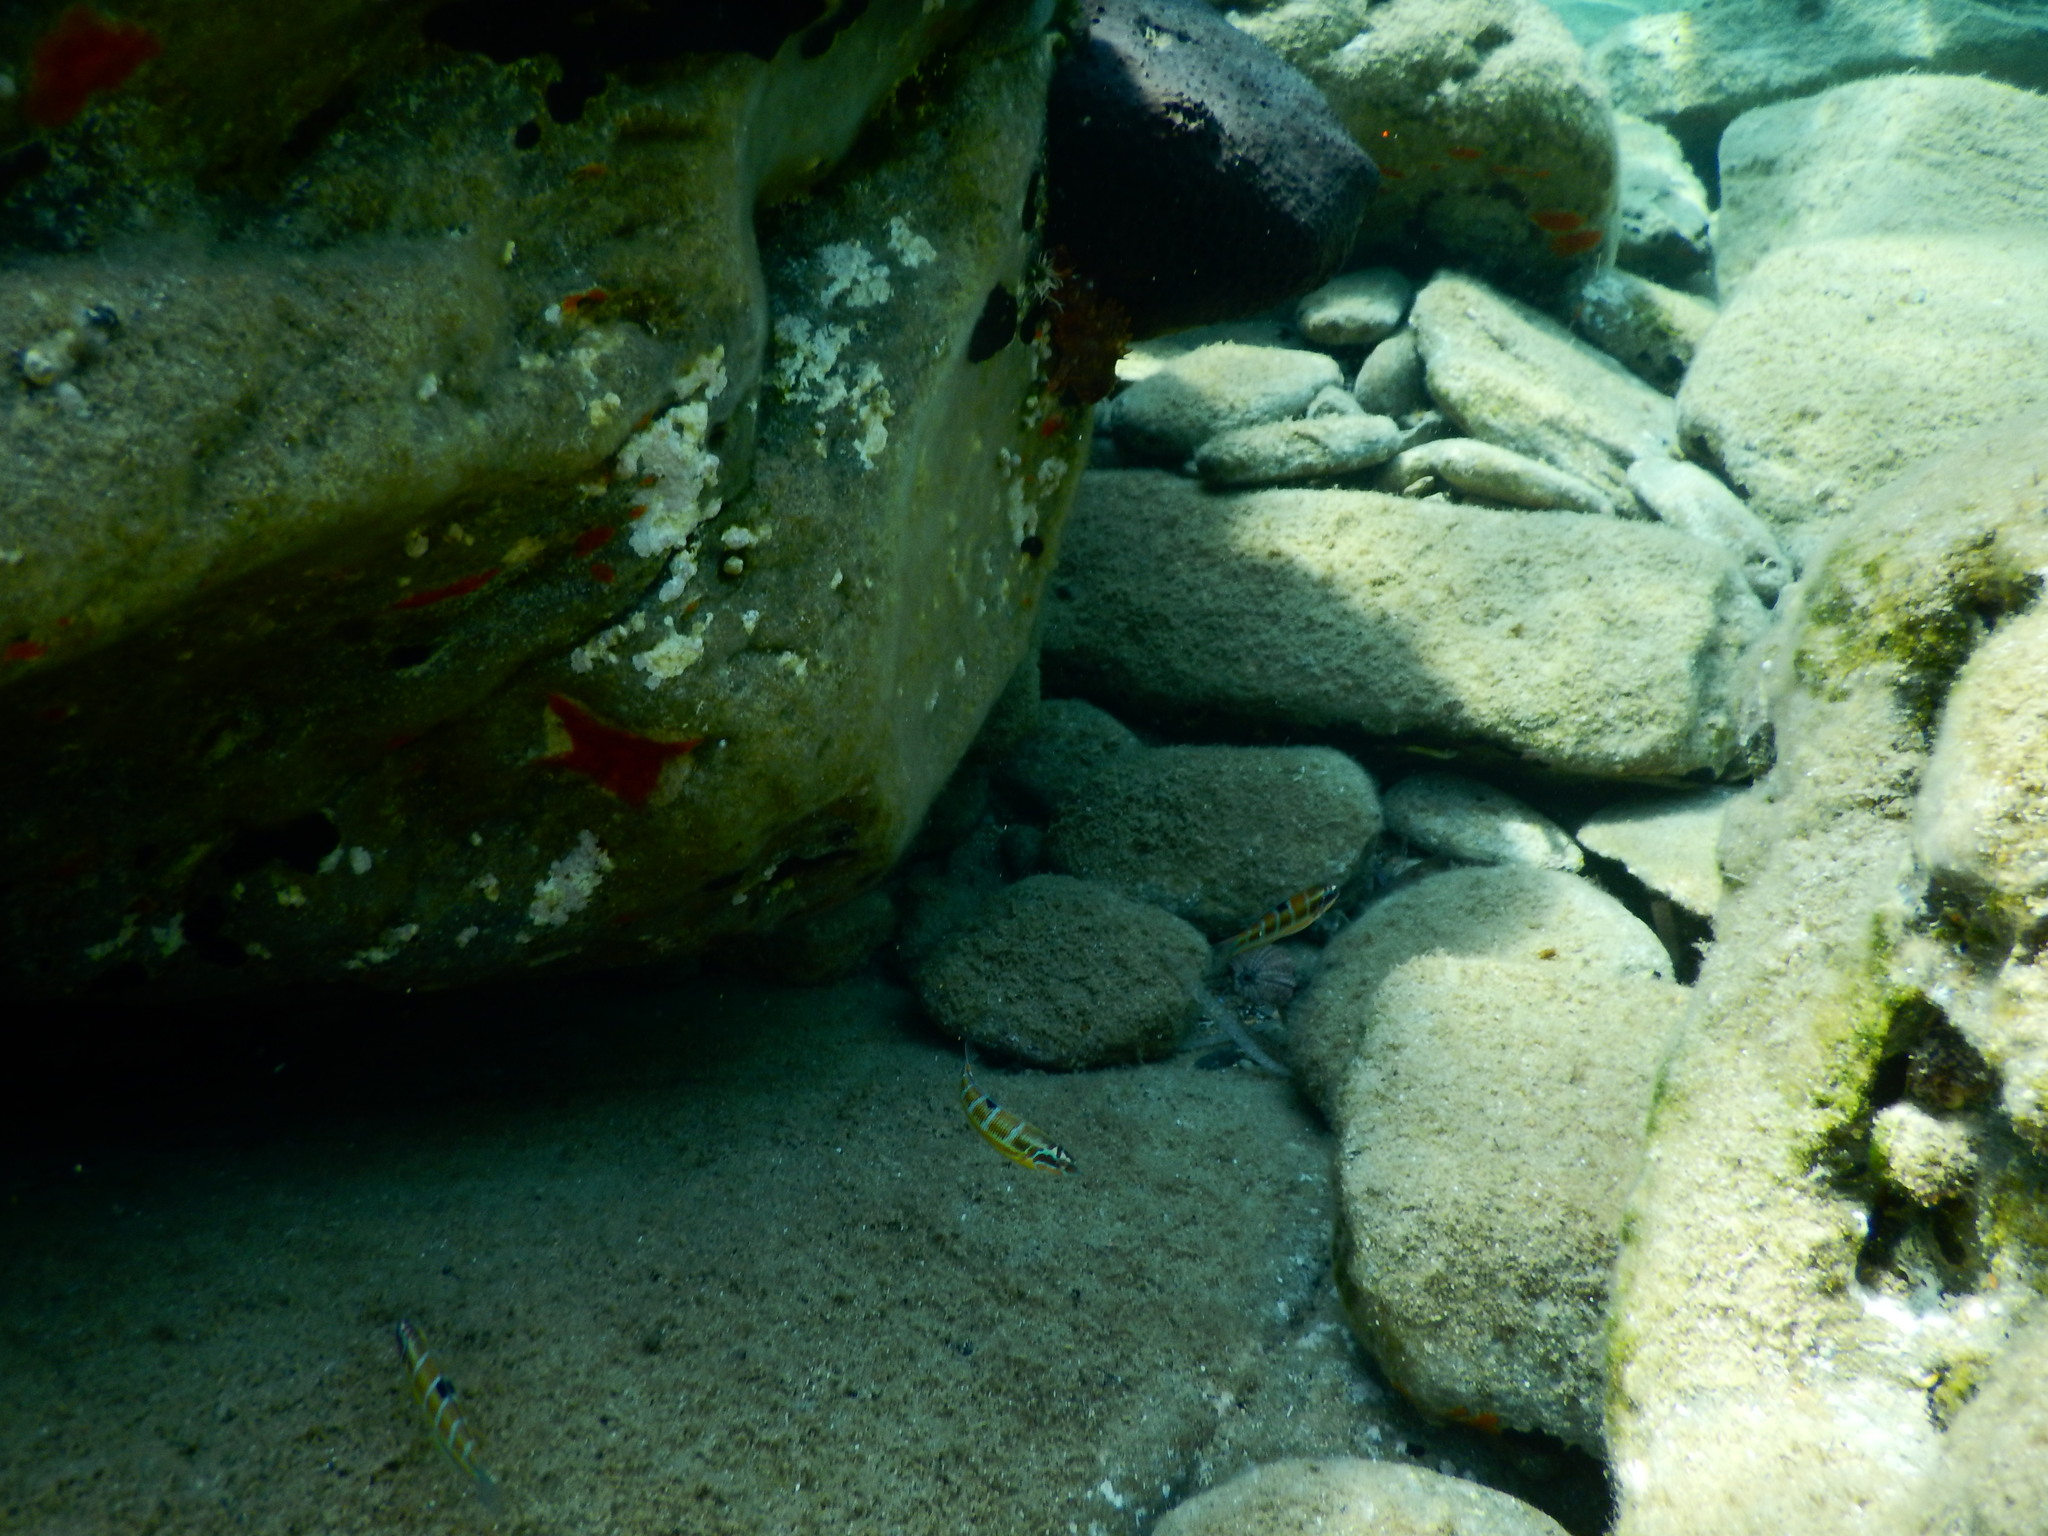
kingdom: Animalia
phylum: Chordata
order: Perciformes
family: Labridae
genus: Thalassoma
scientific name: Thalassoma pavo
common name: Ornate wrasse
